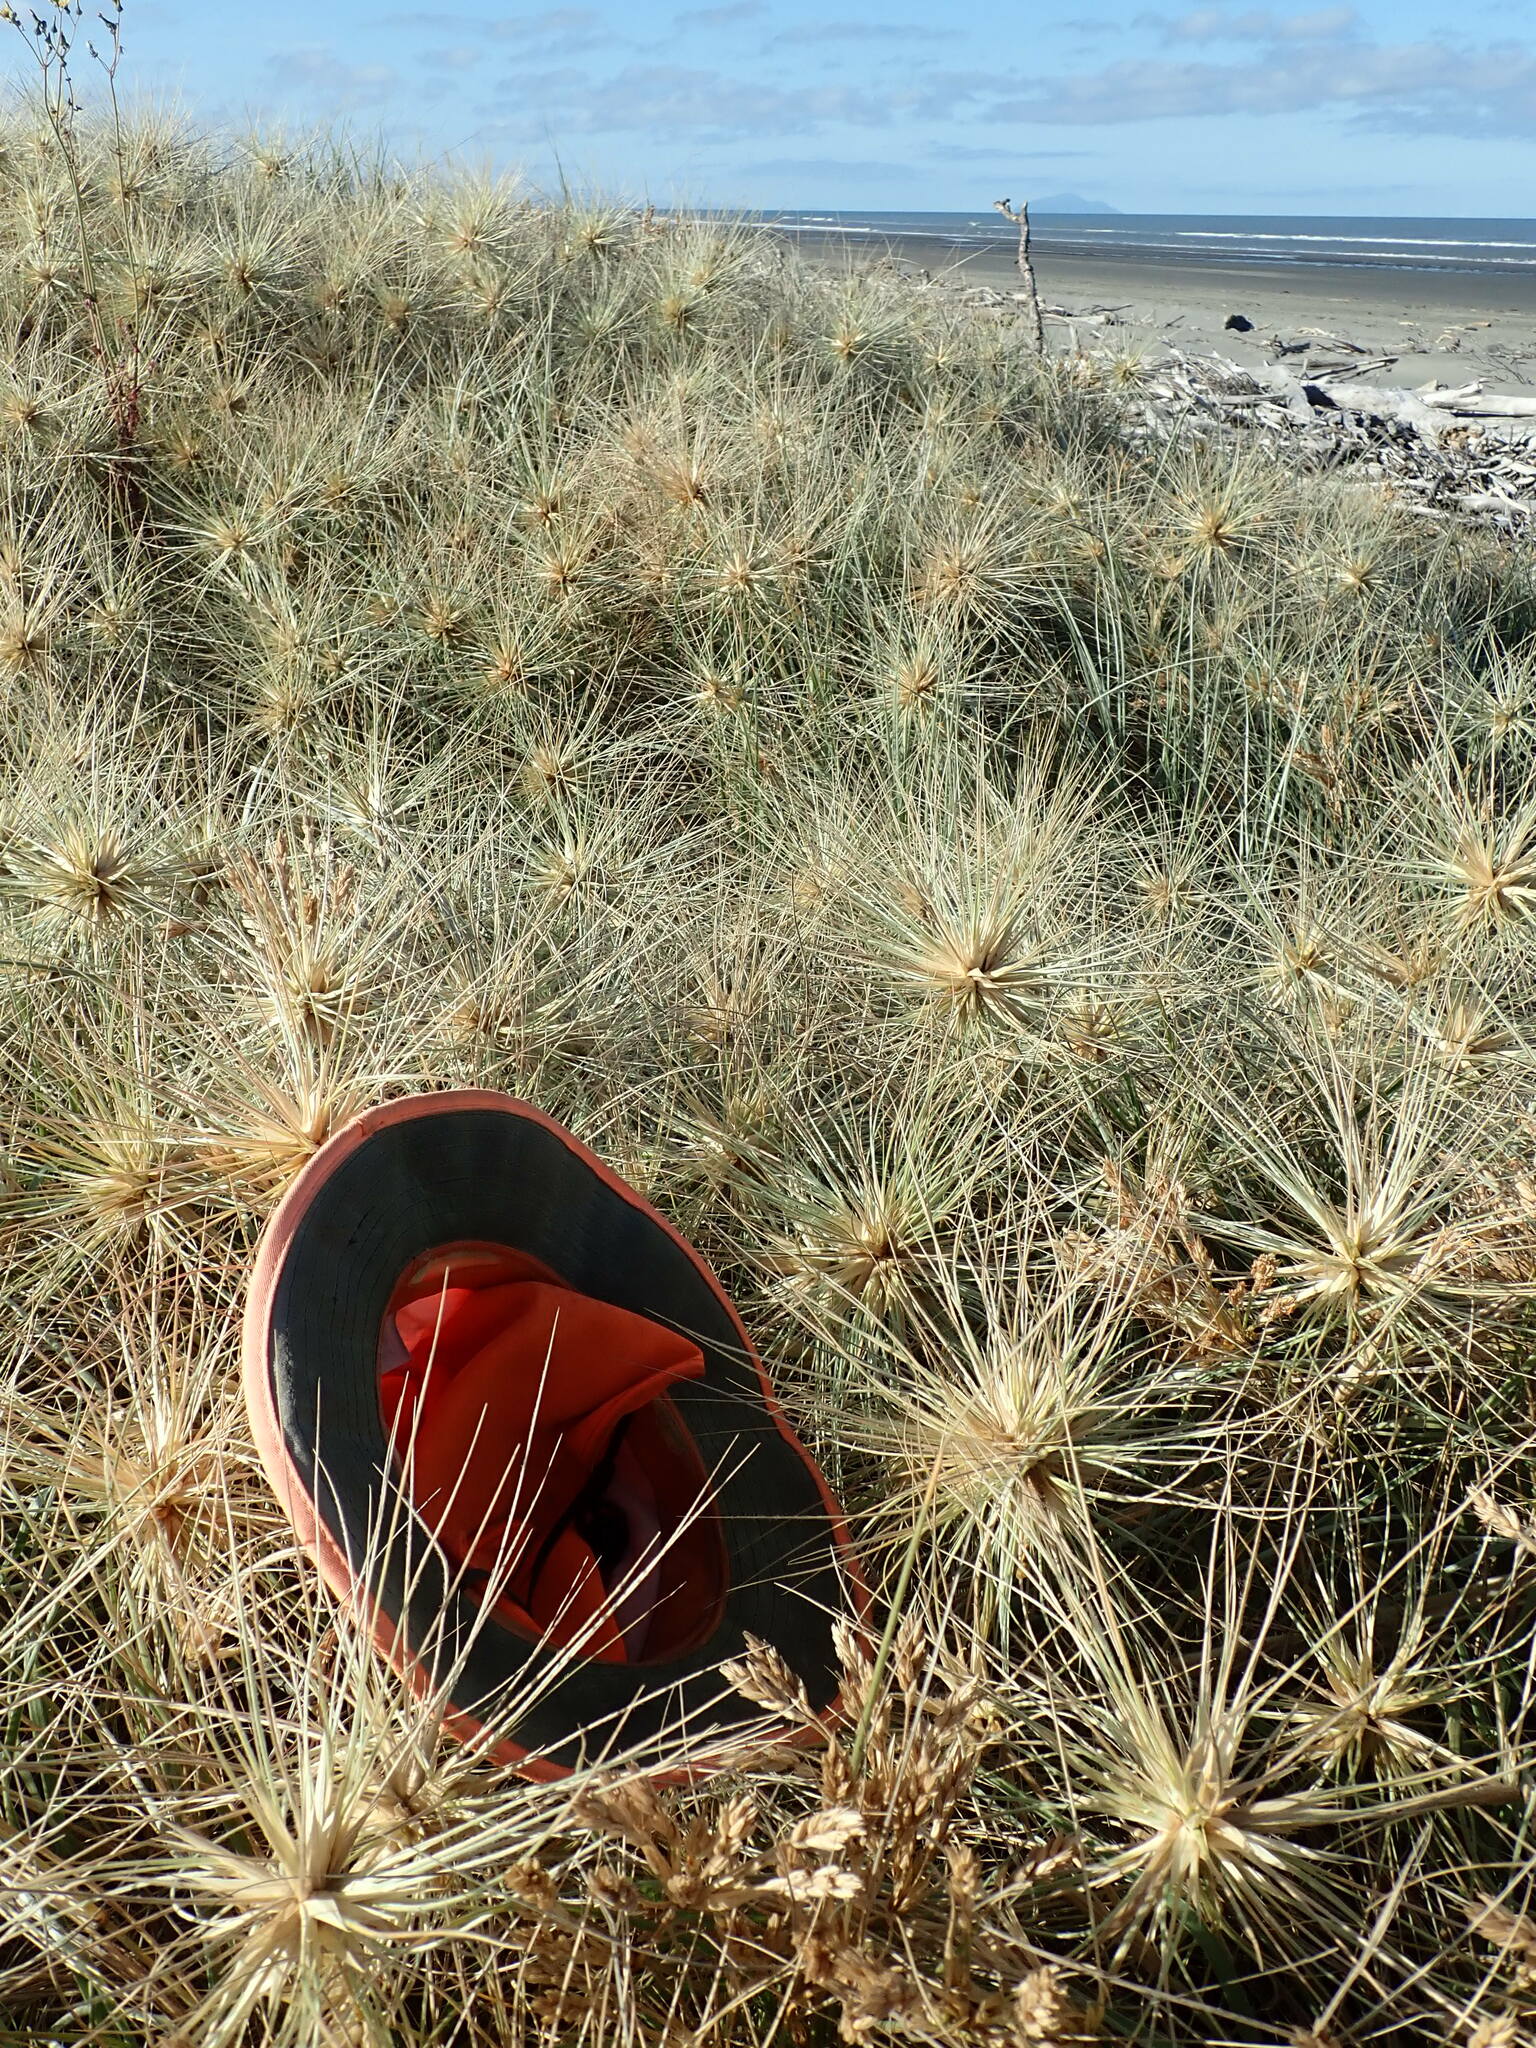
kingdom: Plantae
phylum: Tracheophyta
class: Liliopsida
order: Poales
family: Poaceae
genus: Spinifex
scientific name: Spinifex sericeus
